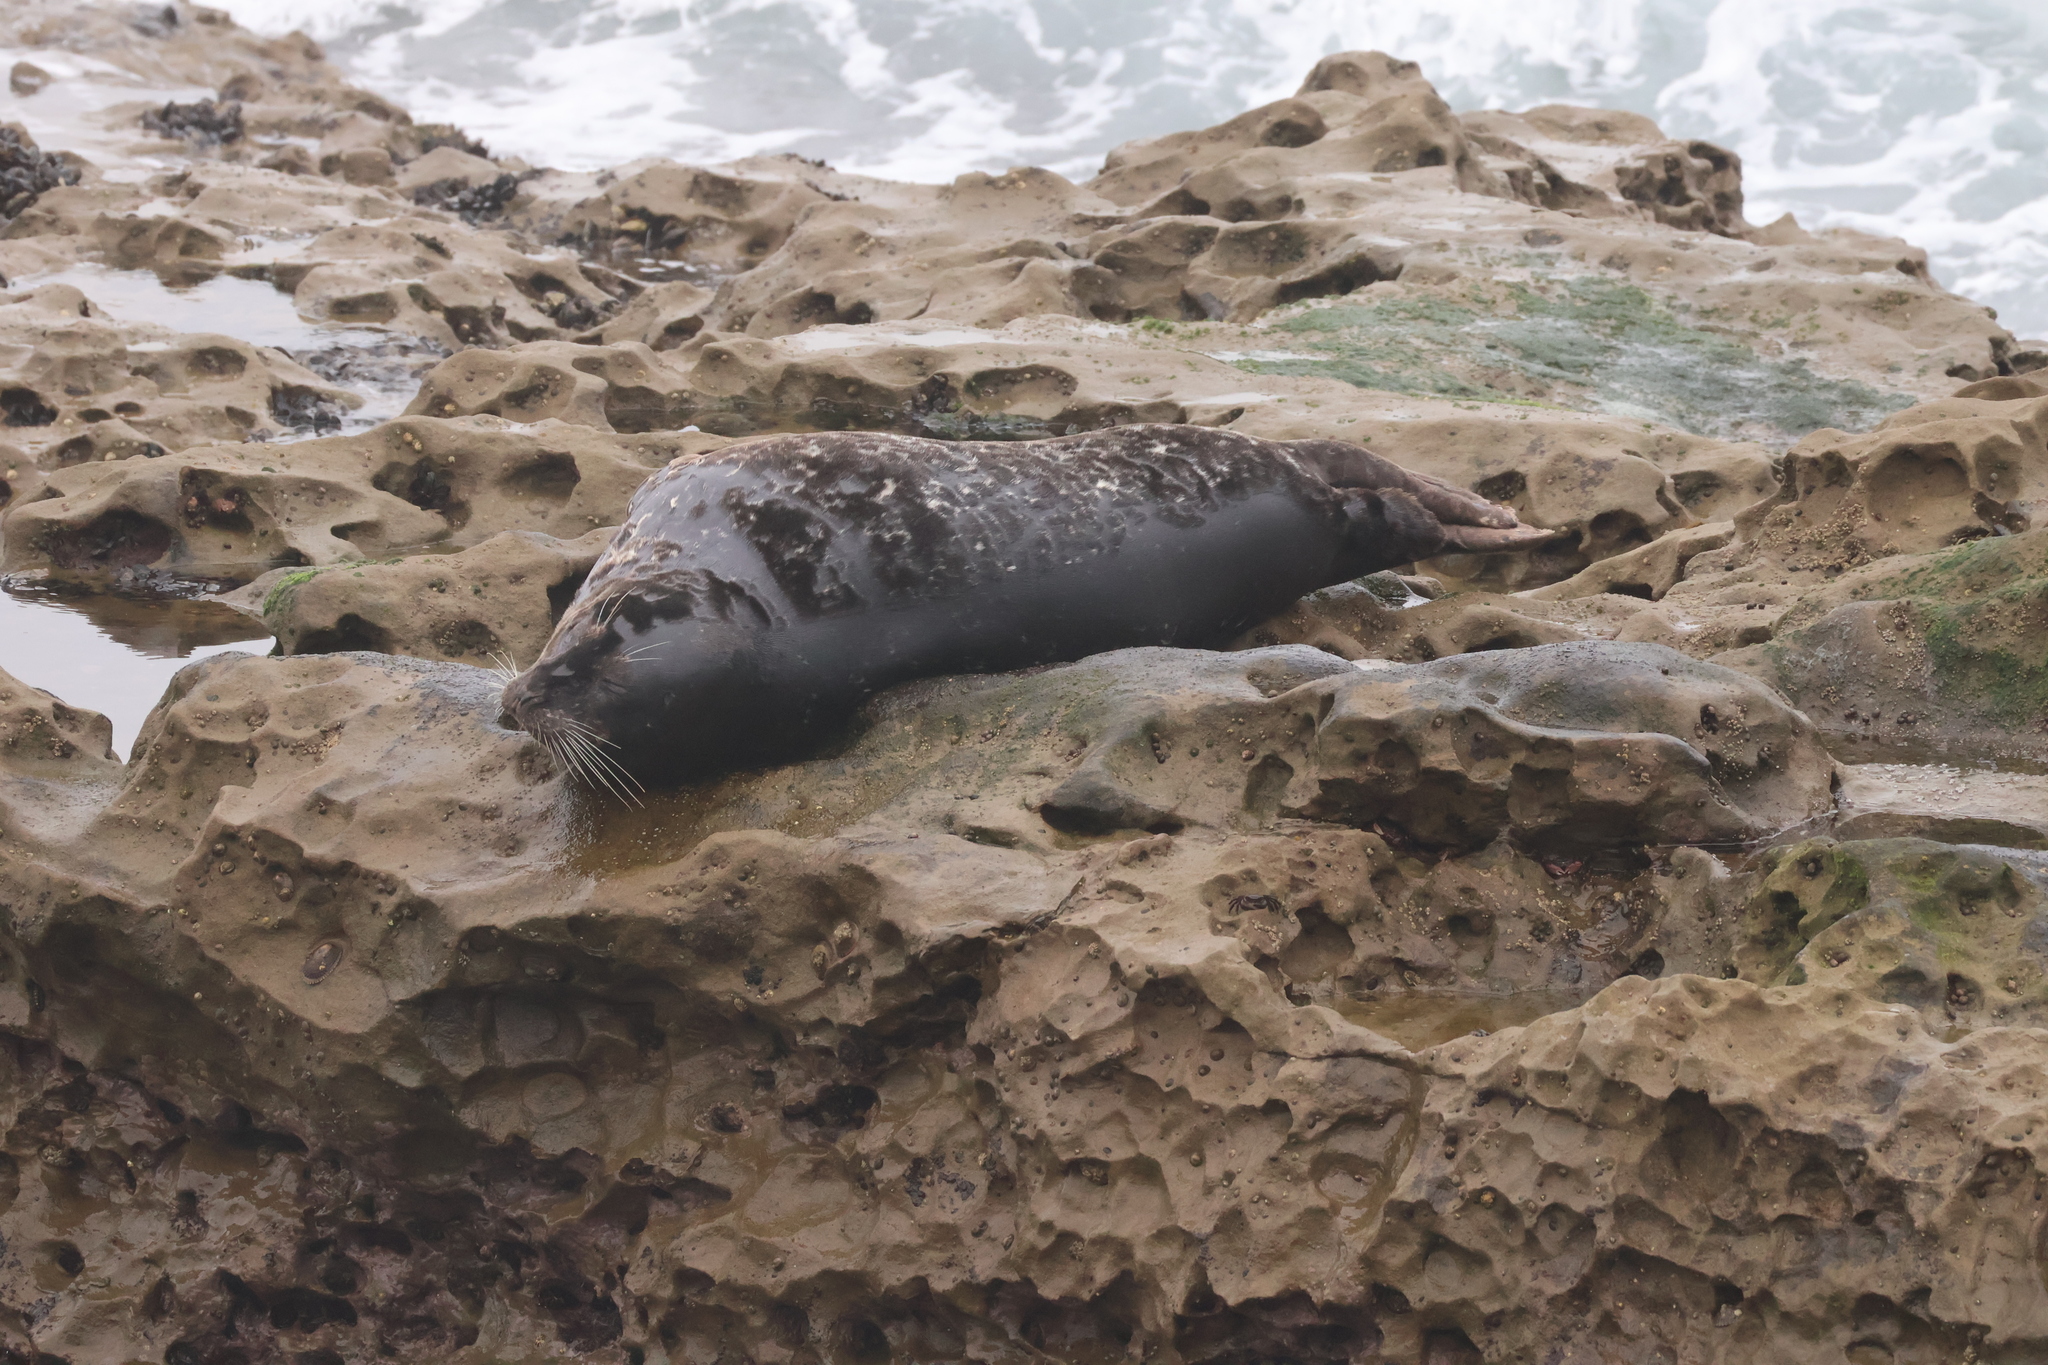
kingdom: Animalia
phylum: Chordata
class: Mammalia
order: Carnivora
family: Phocidae
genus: Phoca
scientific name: Phoca vitulina
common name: Harbor seal
